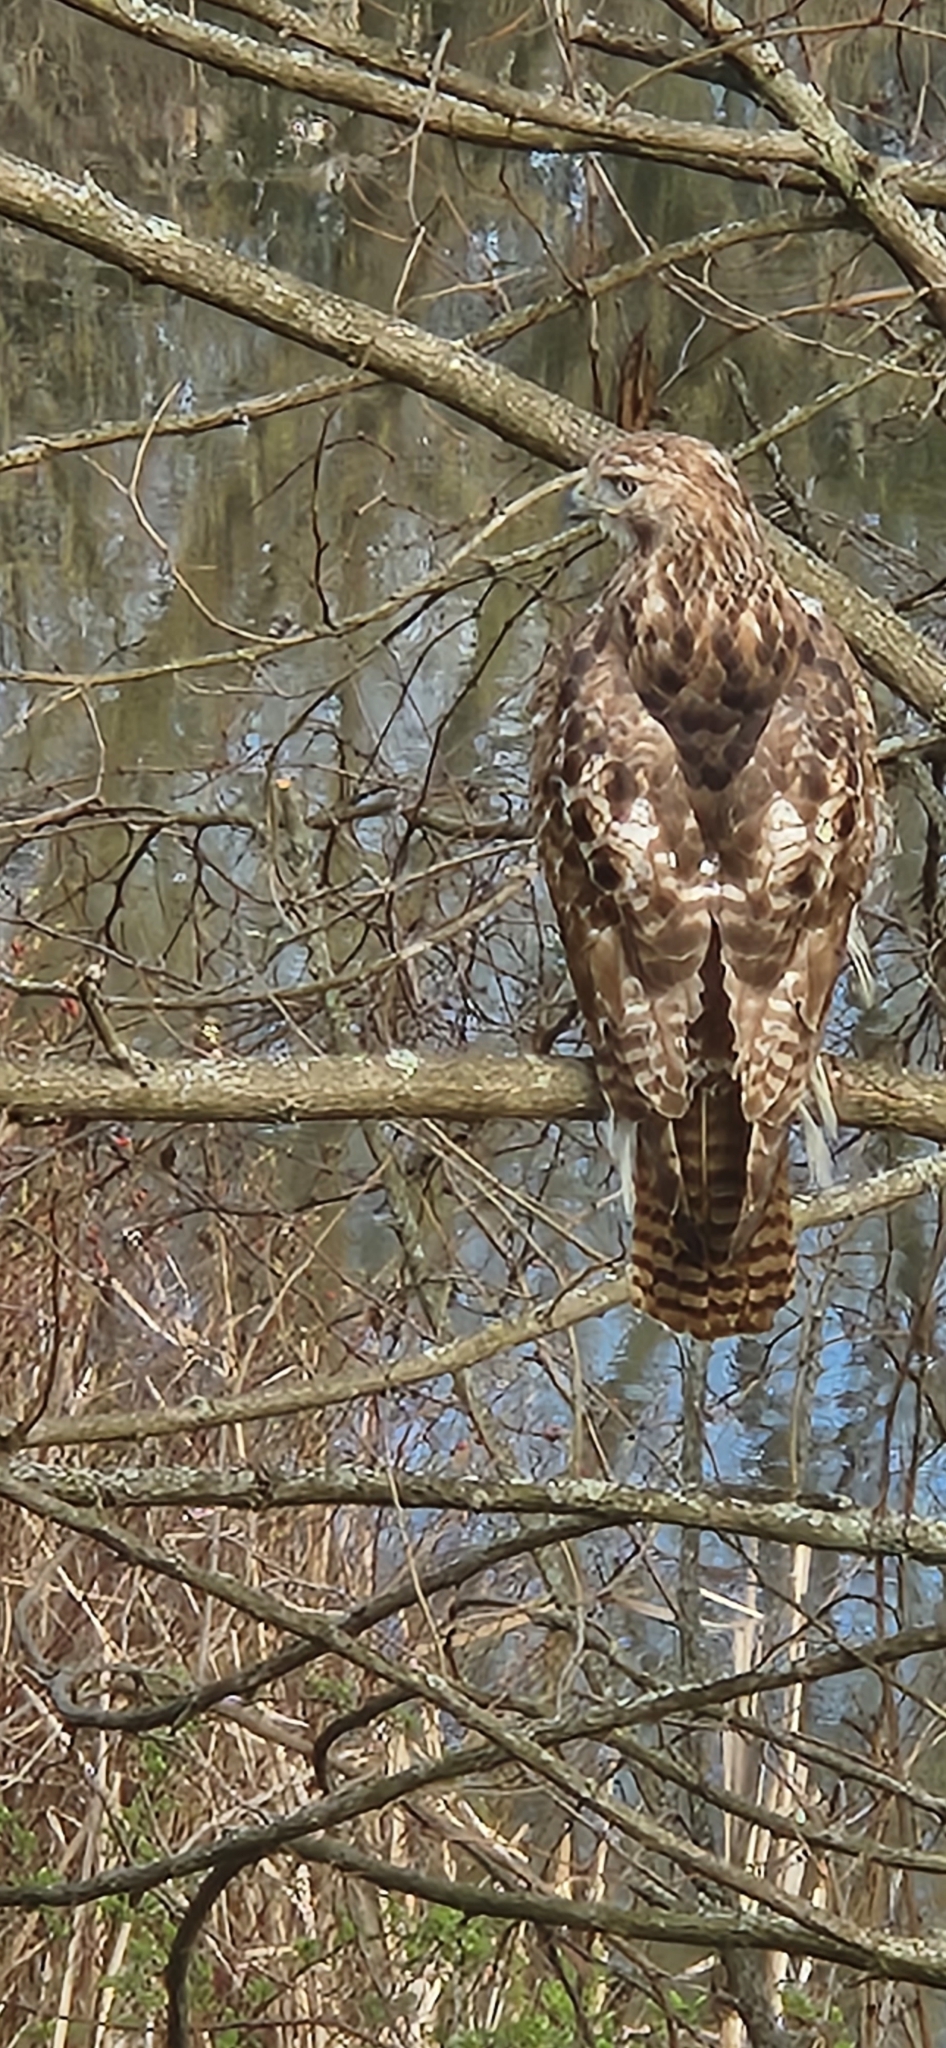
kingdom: Animalia
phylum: Chordata
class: Aves
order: Accipitriformes
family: Accipitridae
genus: Buteo
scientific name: Buteo jamaicensis
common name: Red-tailed hawk
